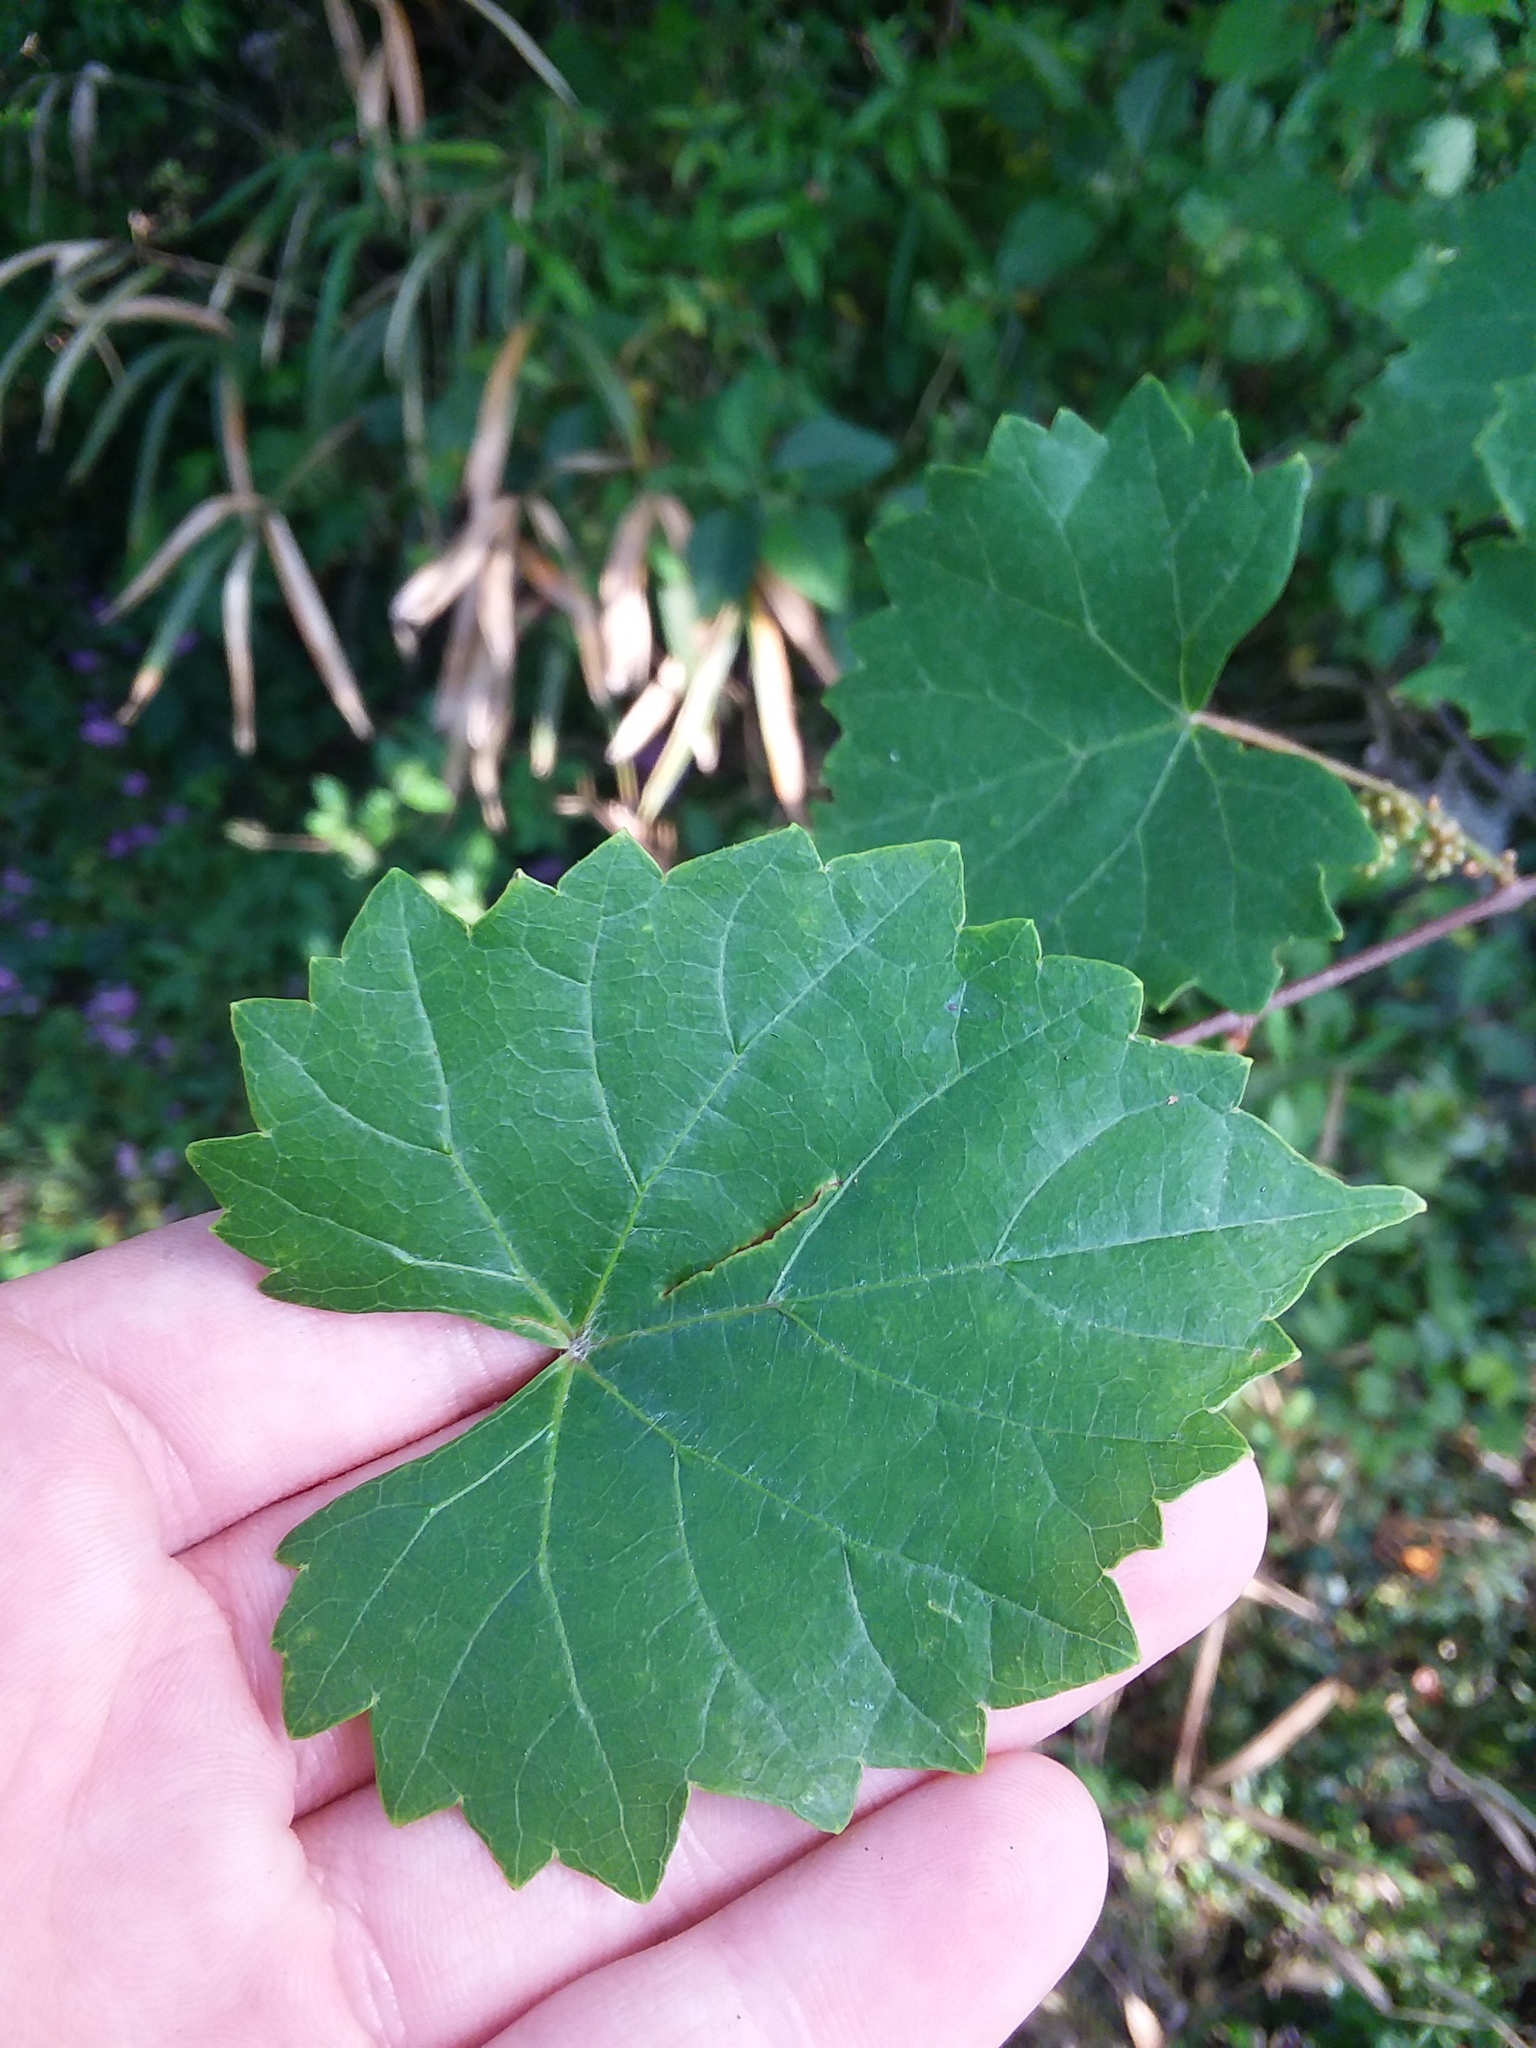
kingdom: Plantae
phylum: Tracheophyta
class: Magnoliopsida
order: Vitales
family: Vitaceae
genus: Vitis
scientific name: Vitis rotundifolia
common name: Muscadine grape
